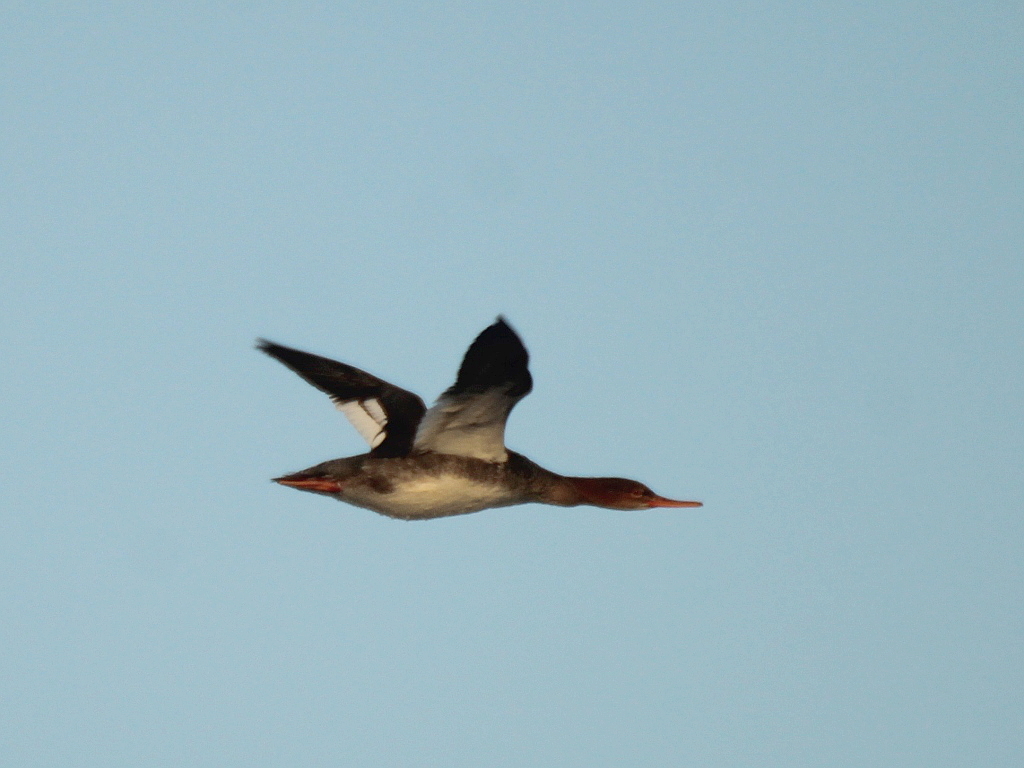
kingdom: Animalia
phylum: Chordata
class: Aves
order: Anseriformes
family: Anatidae
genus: Mergus
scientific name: Mergus serrator
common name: Red-breasted merganser
